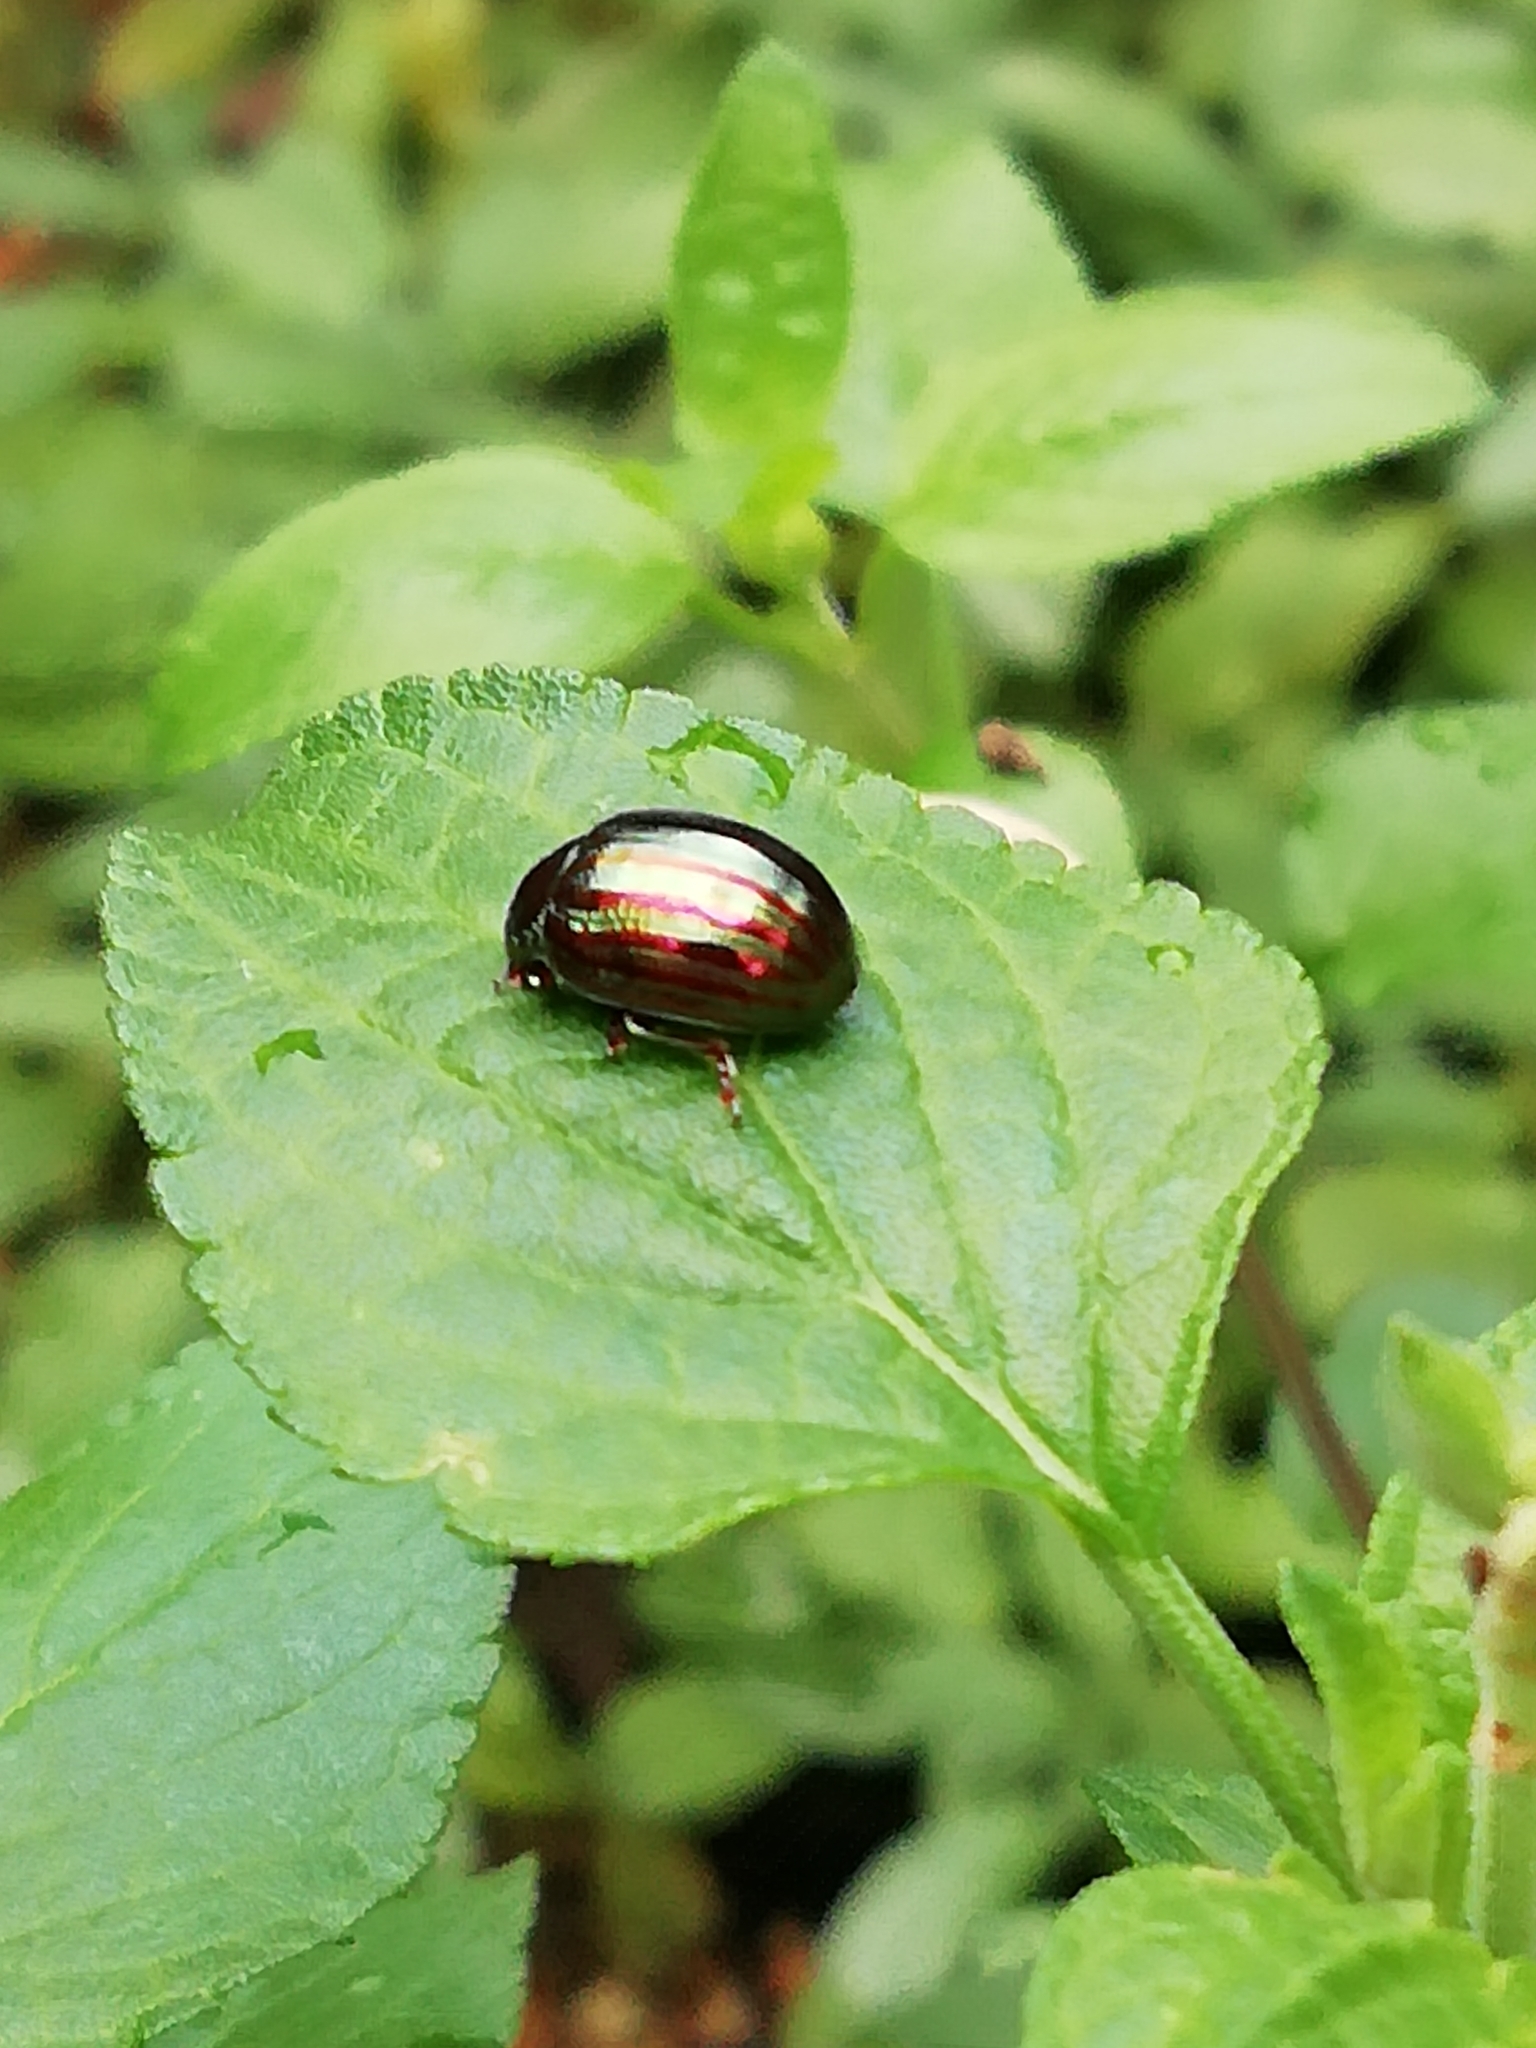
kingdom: Animalia
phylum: Arthropoda
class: Insecta
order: Coleoptera
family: Chrysomelidae
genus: Chrysolina
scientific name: Chrysolina americana
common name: Rosemary beetle
